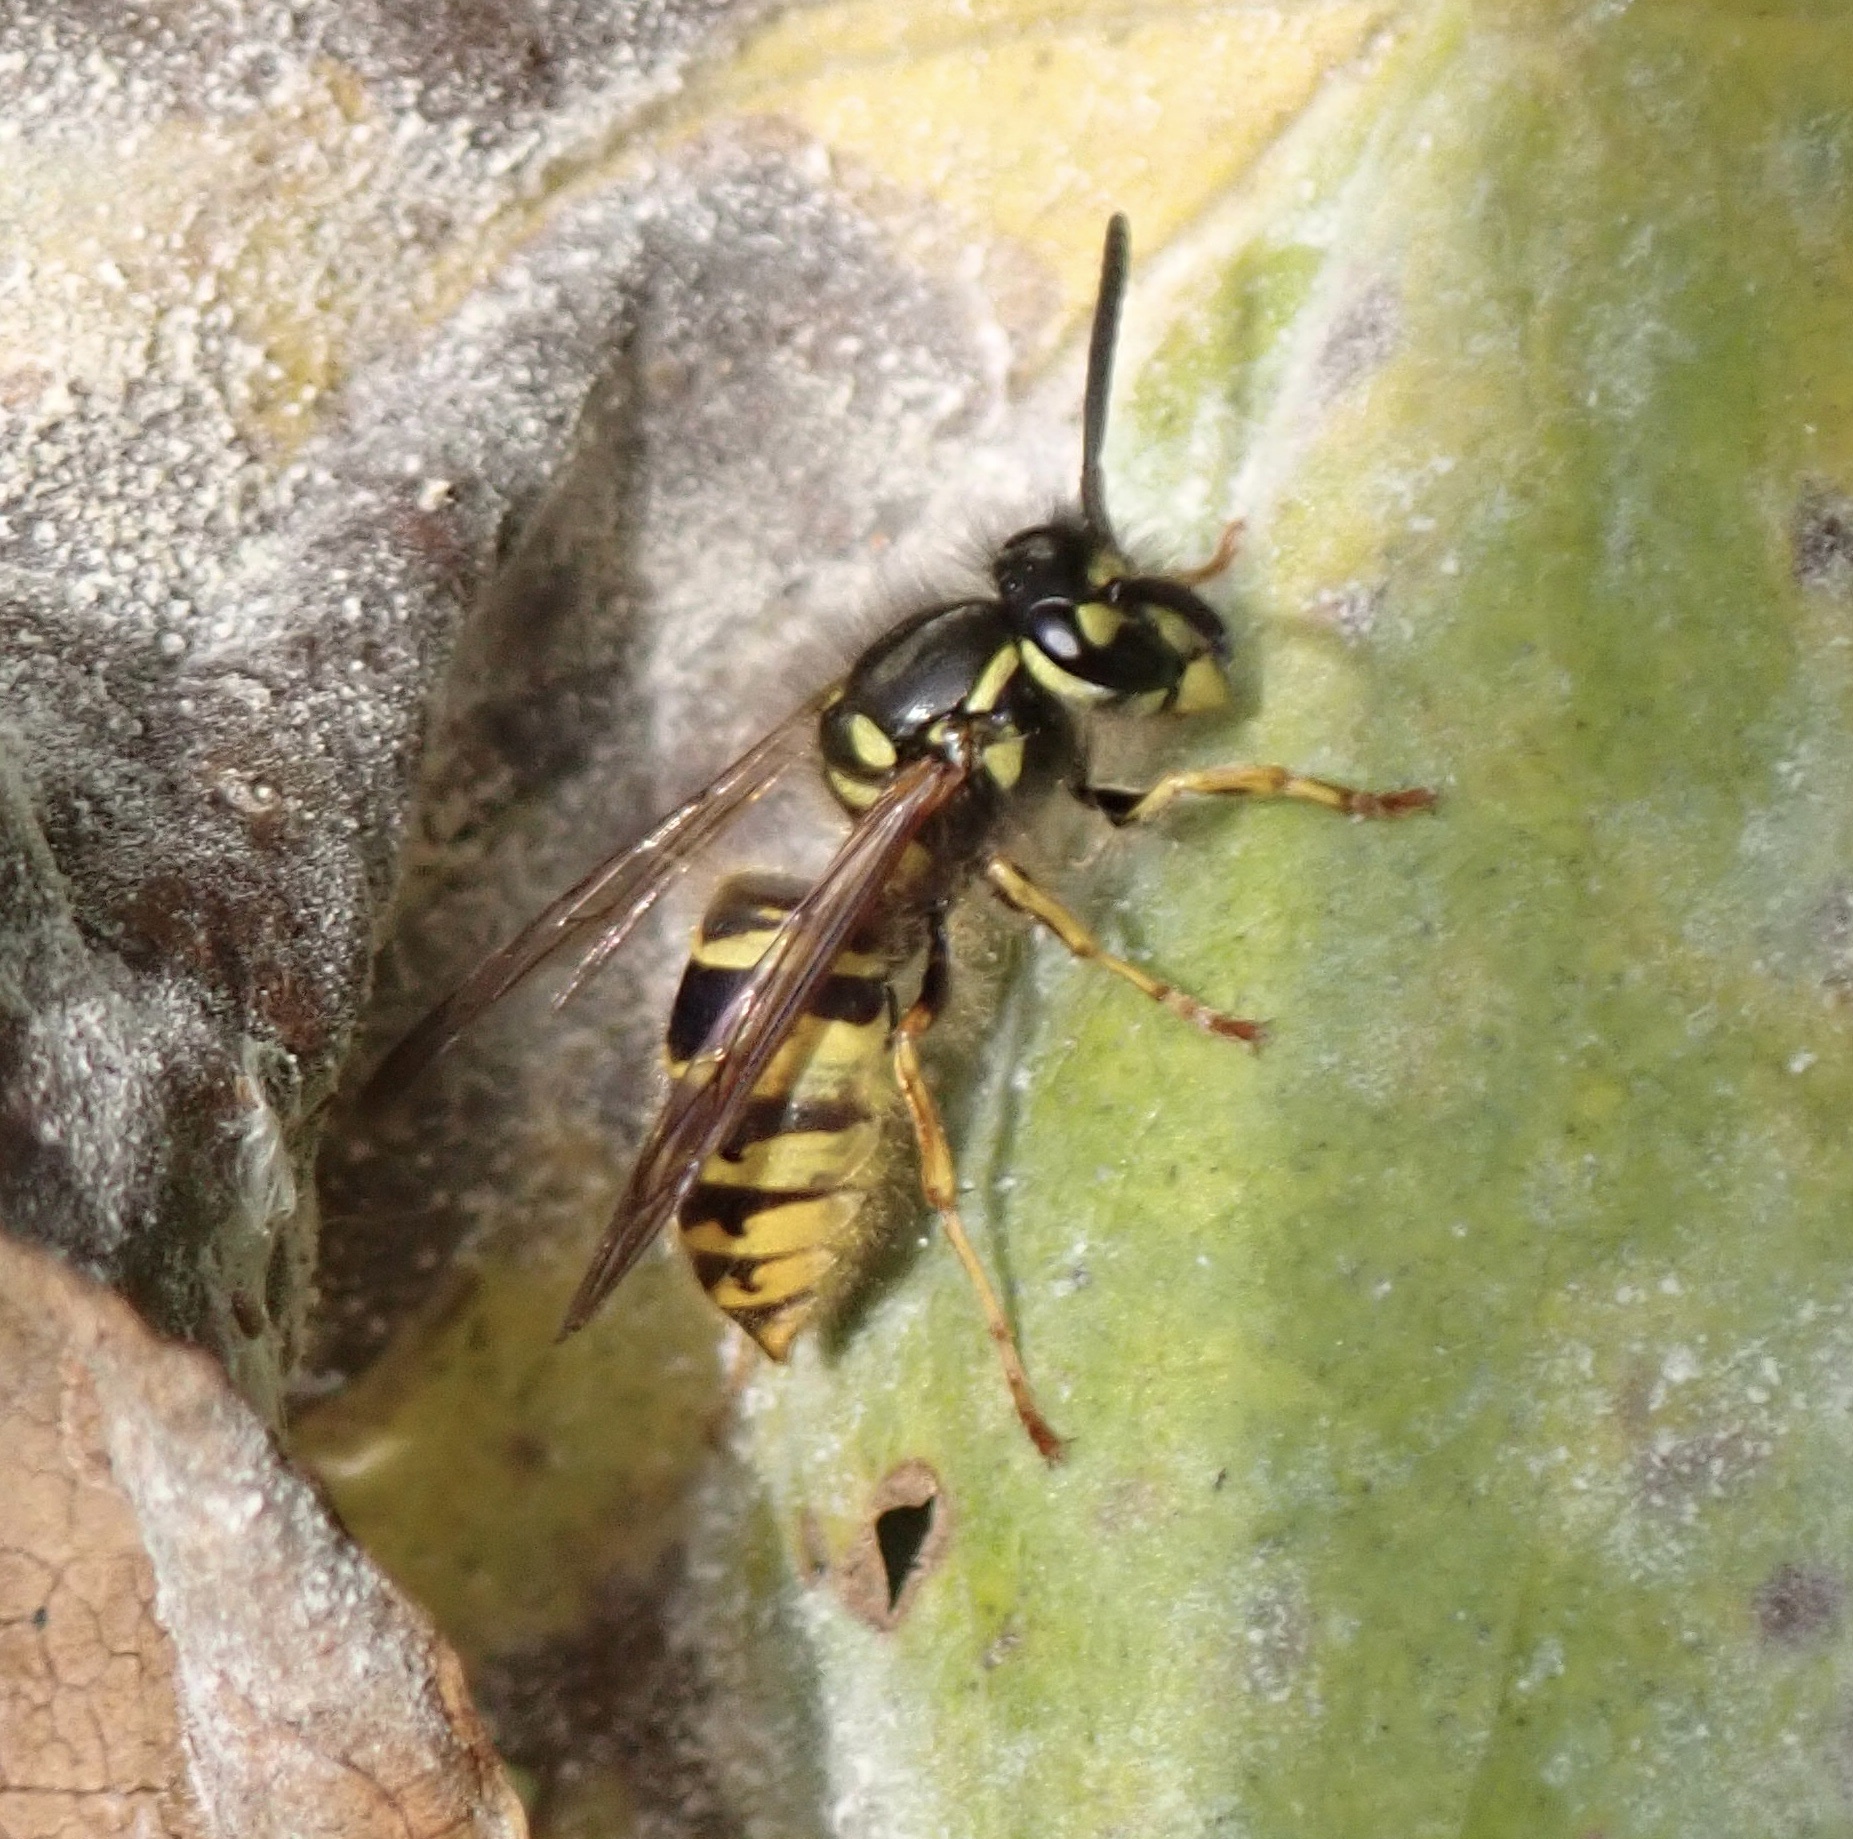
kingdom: Animalia
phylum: Arthropoda
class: Insecta
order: Hymenoptera
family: Vespidae
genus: Vespula
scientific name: Vespula vulgaris
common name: Common wasp
